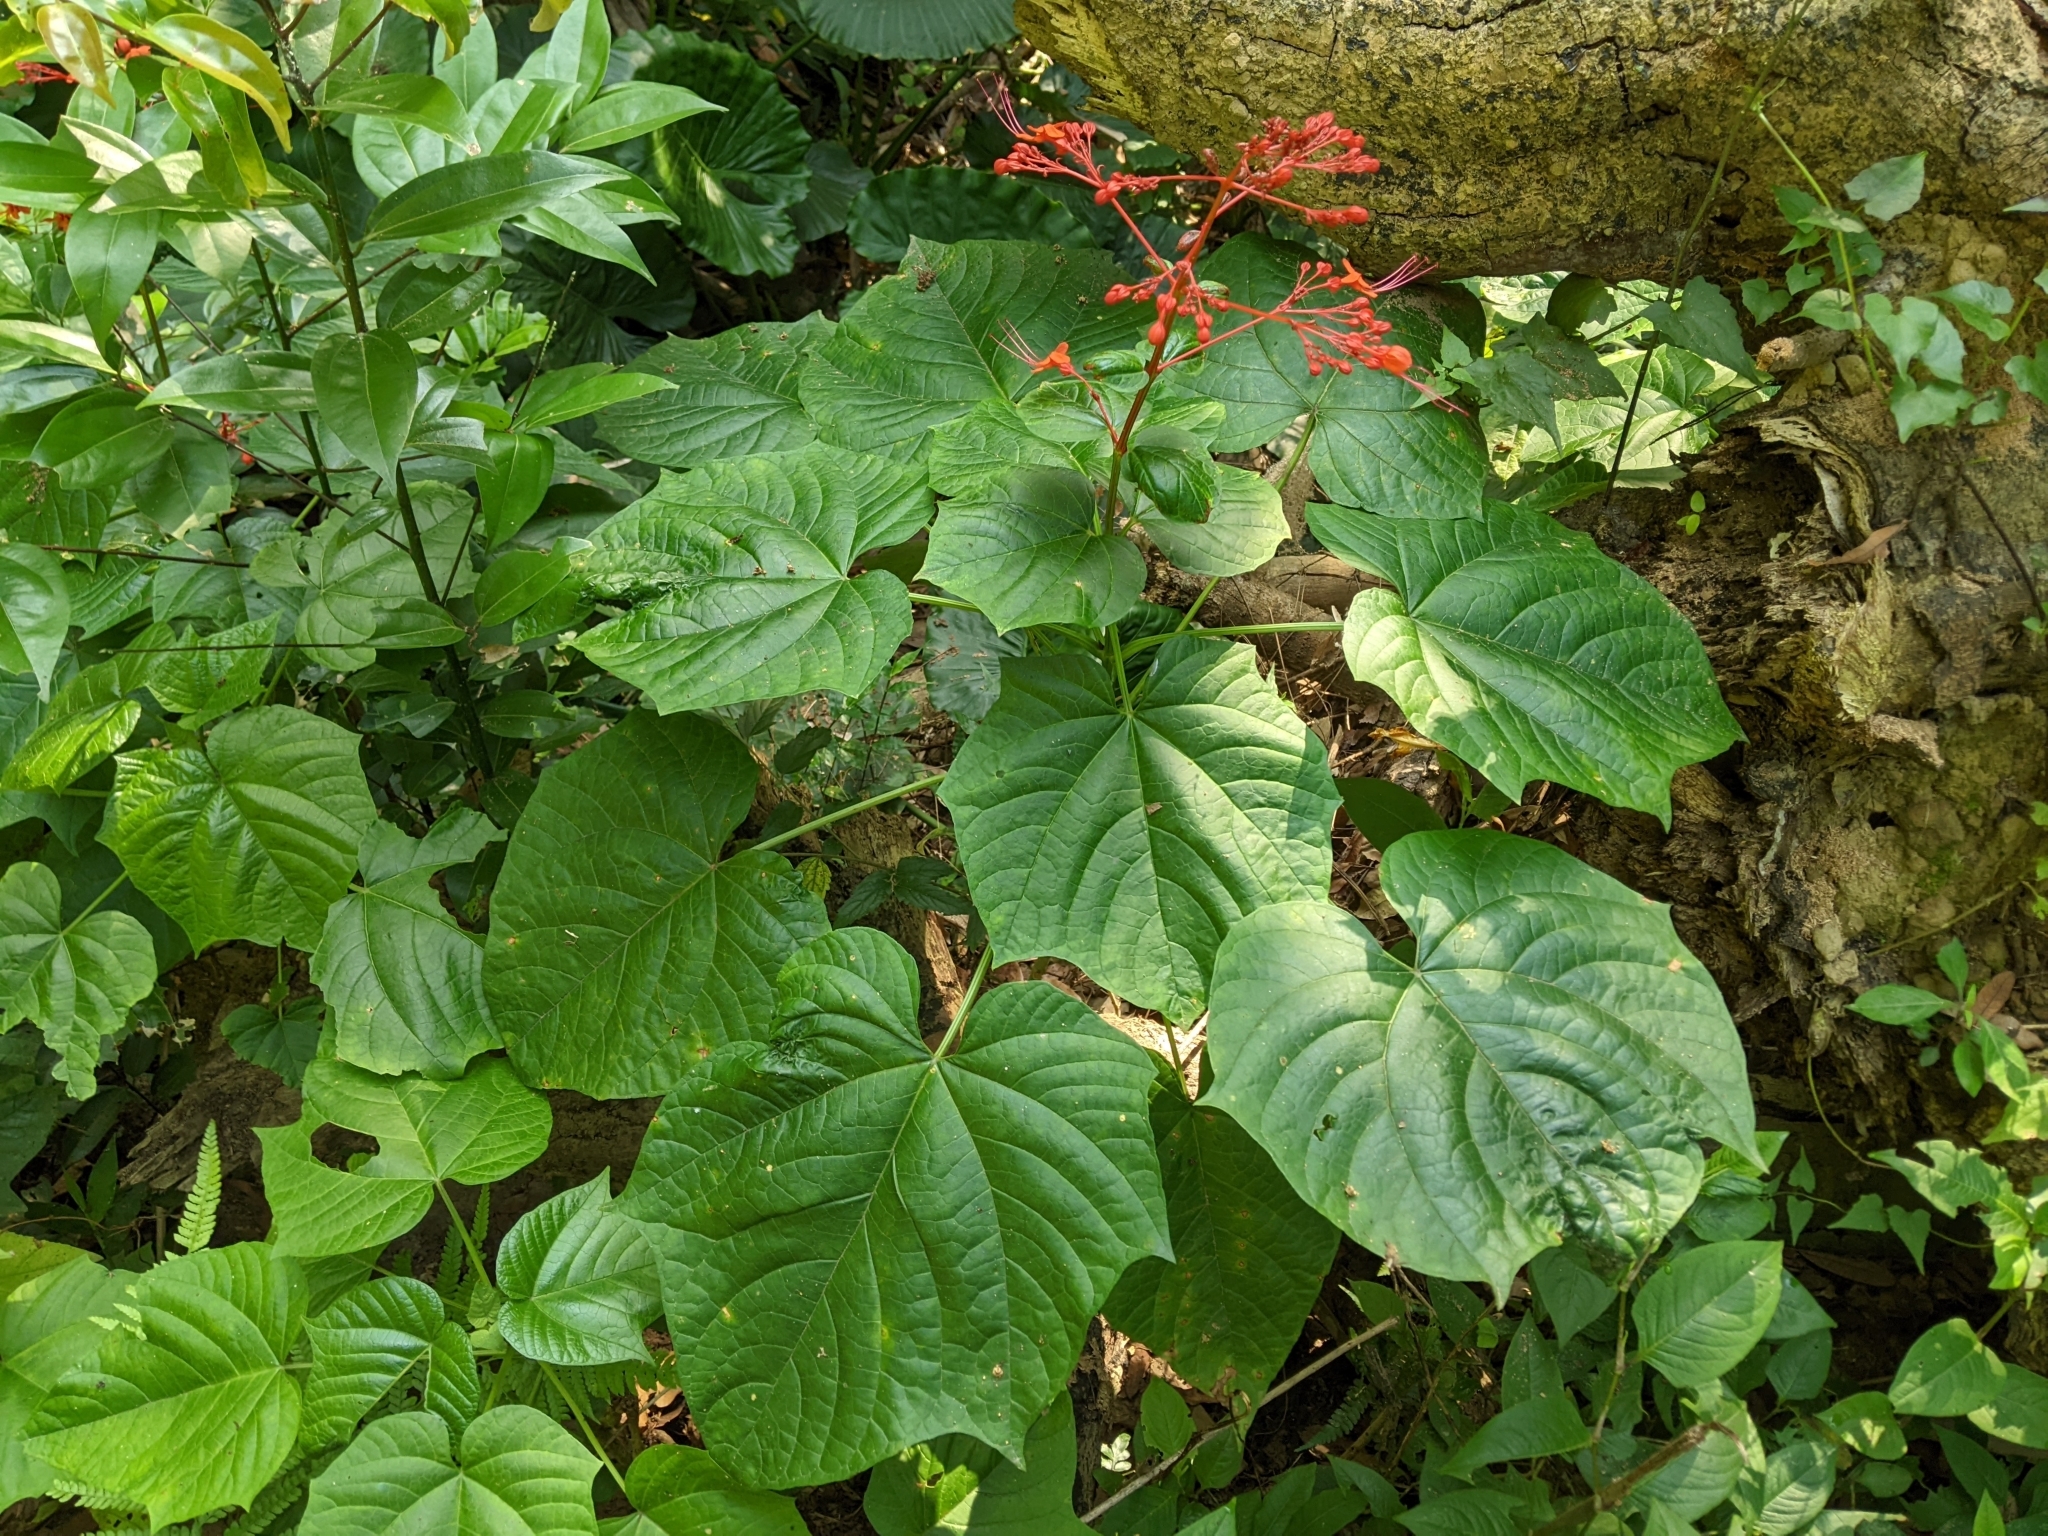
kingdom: Plantae
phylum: Tracheophyta
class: Magnoliopsida
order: Lamiales
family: Lamiaceae
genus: Clerodendrum
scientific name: Clerodendrum japonicum
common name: Japanese glorybower
